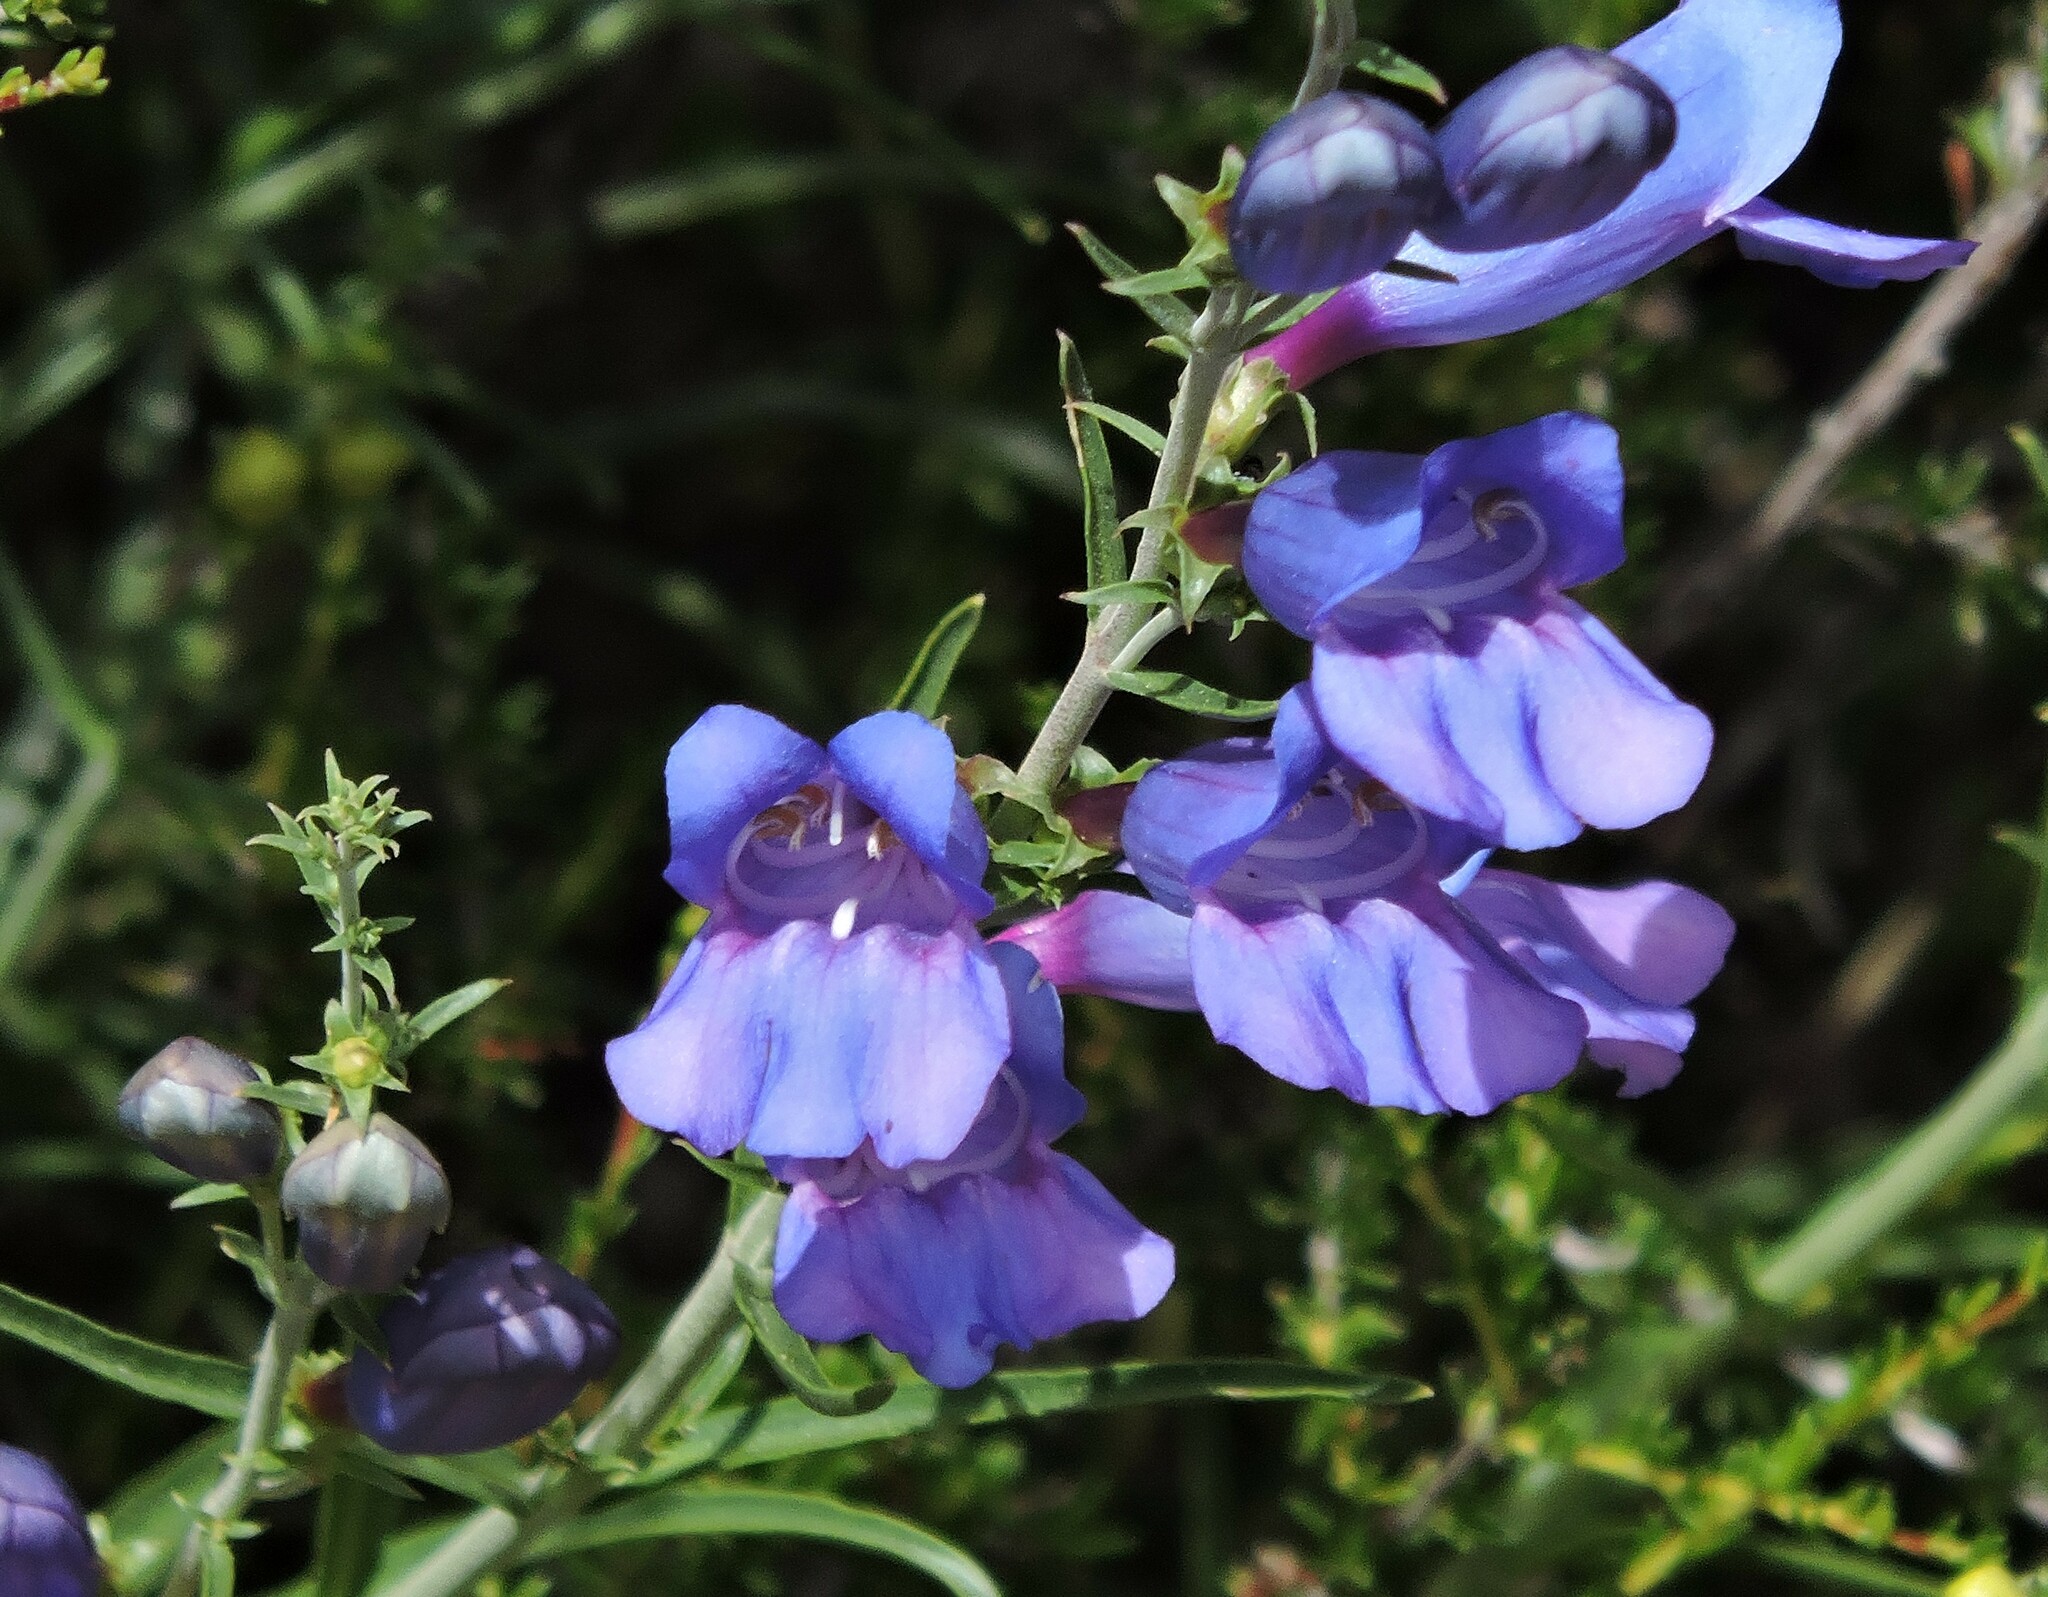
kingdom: Plantae
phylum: Tracheophyta
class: Magnoliopsida
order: Lamiales
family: Plantaginaceae
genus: Penstemon
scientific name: Penstemon heterophyllus
